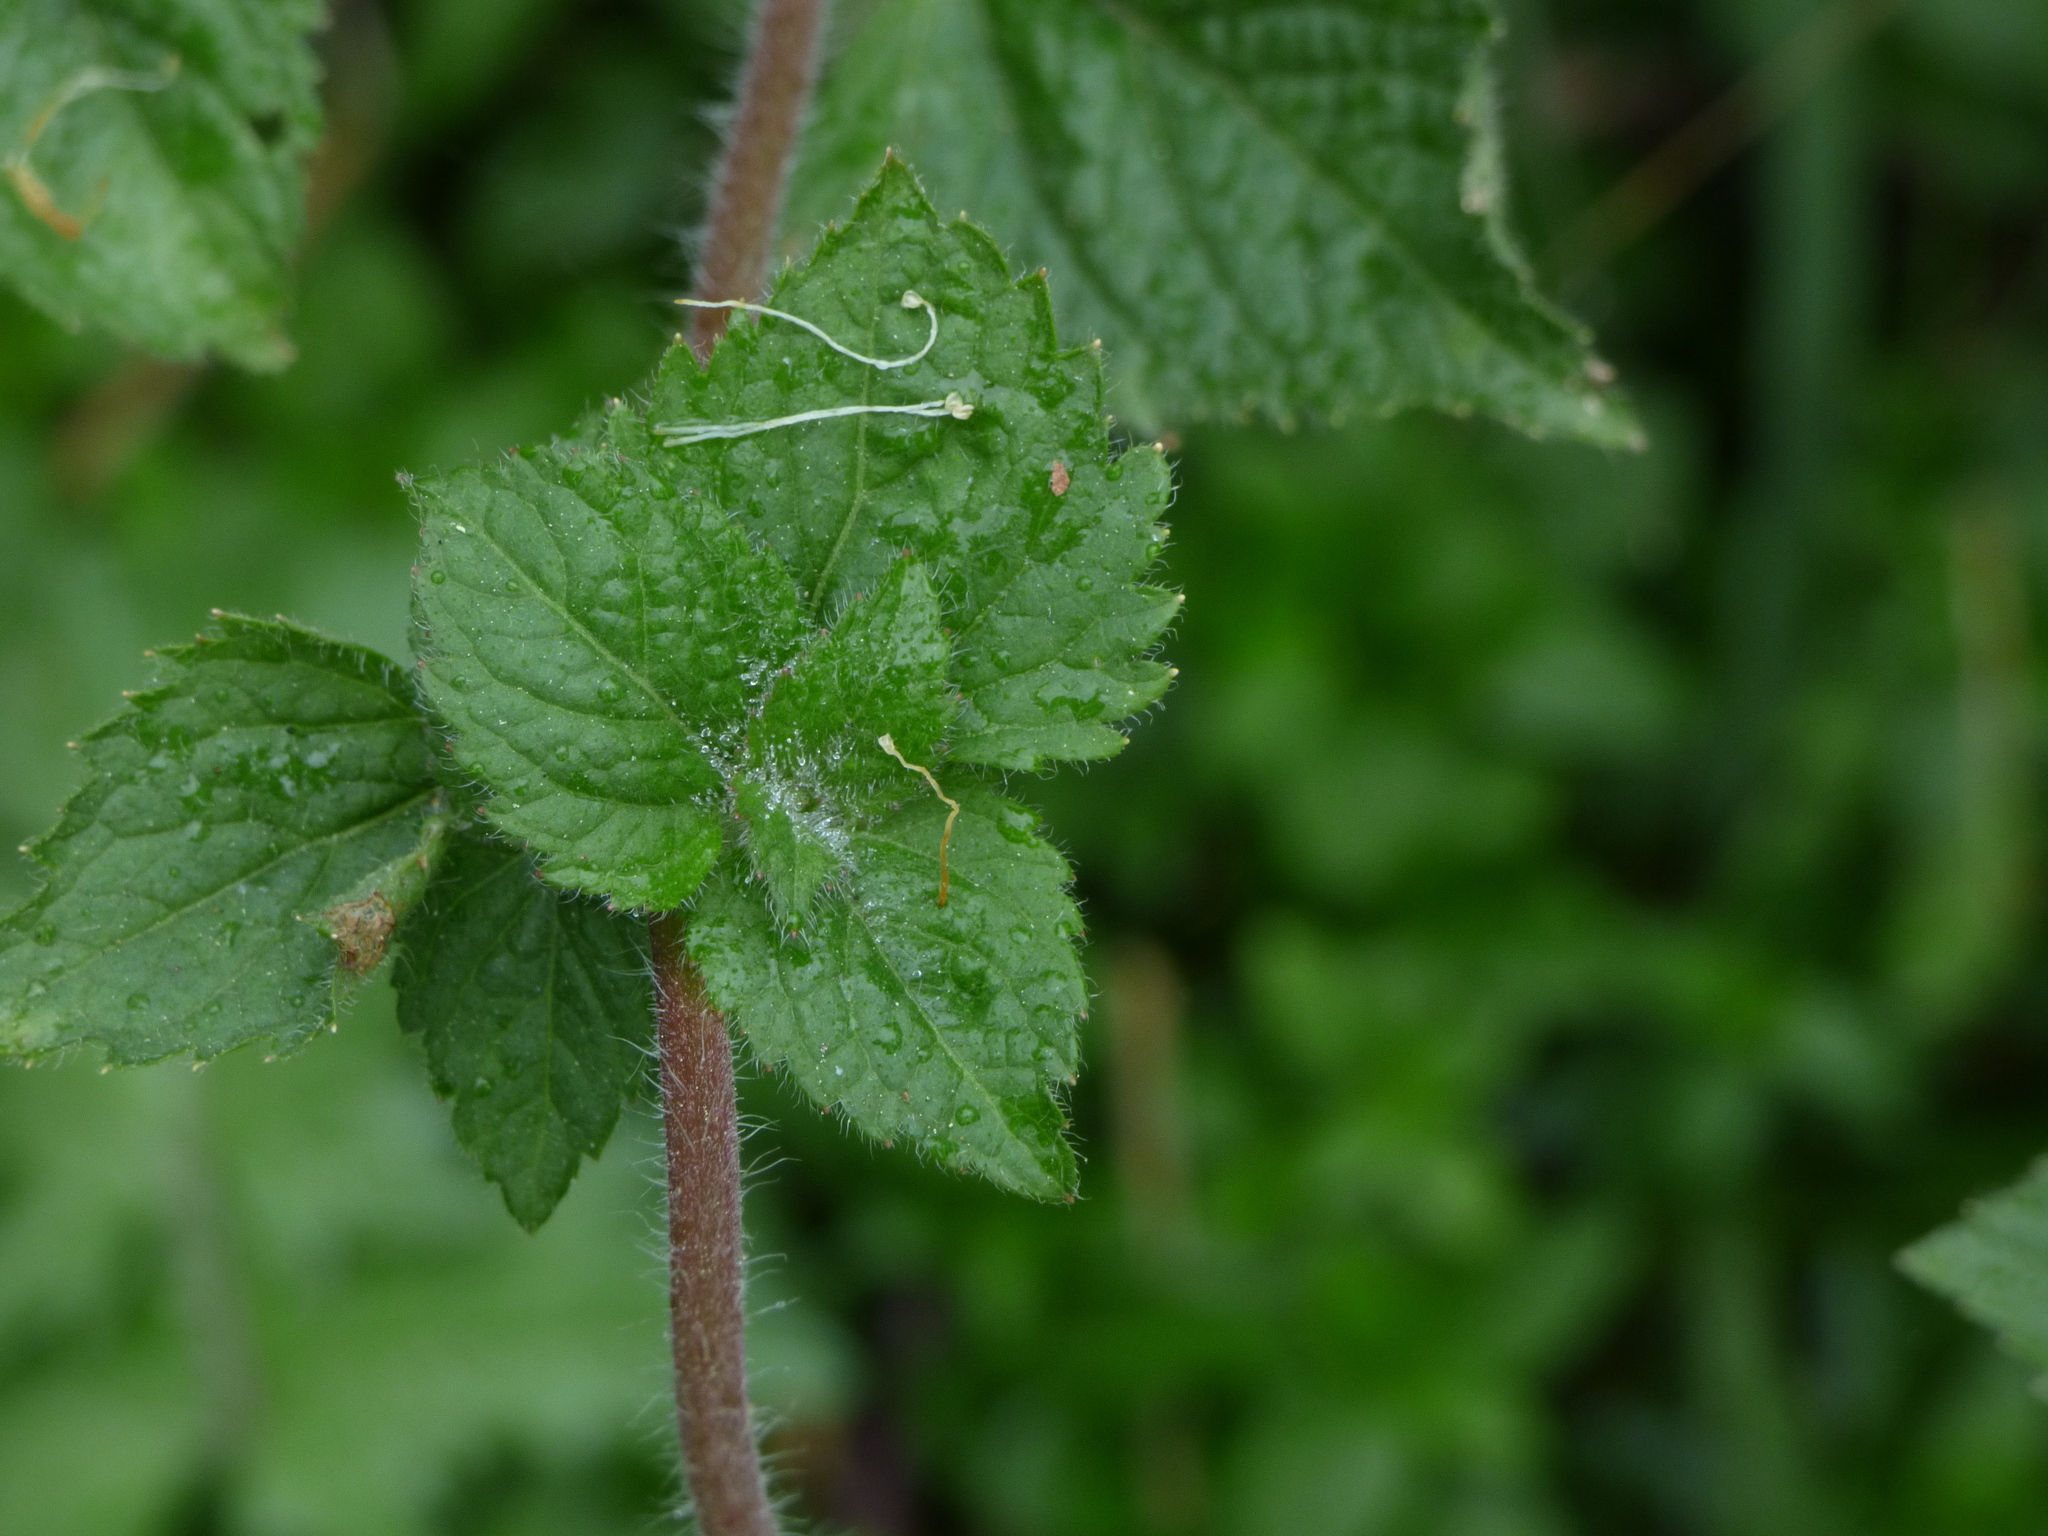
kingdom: Plantae
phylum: Tracheophyta
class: Magnoliopsida
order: Asterales
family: Asteraceae
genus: Ageratum
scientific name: Ageratum houstonianum
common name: Bluemink
